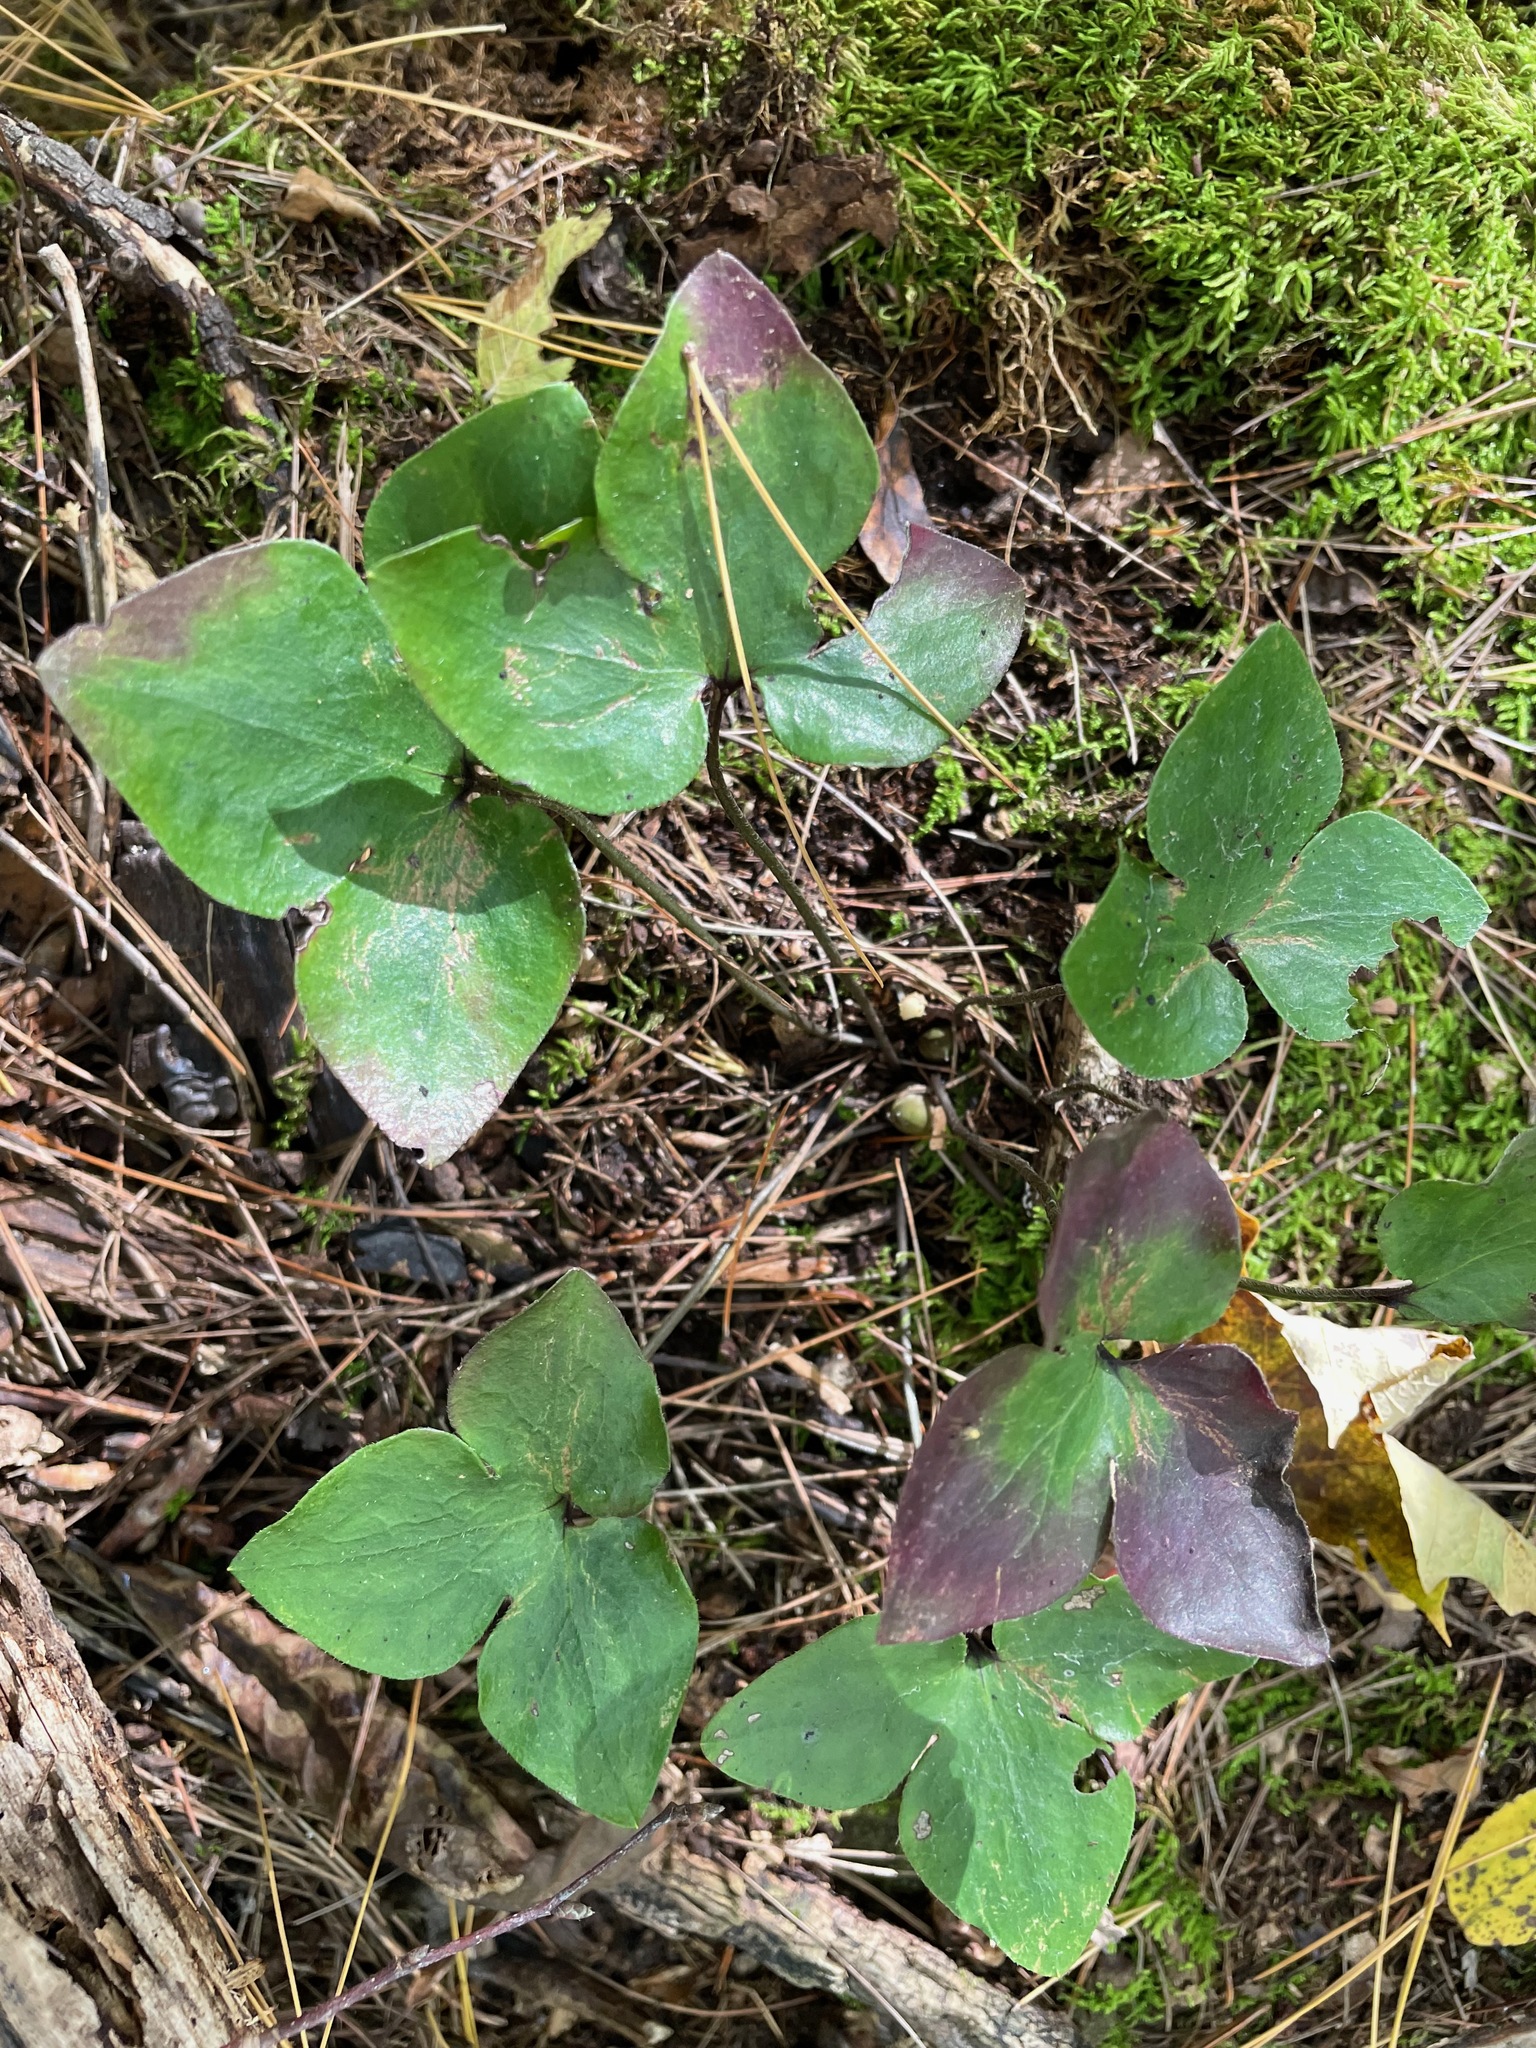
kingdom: Plantae
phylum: Tracheophyta
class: Magnoliopsida
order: Ranunculales
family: Ranunculaceae
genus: Hepatica
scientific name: Hepatica acutiloba
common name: Sharp-lobed hepatica
